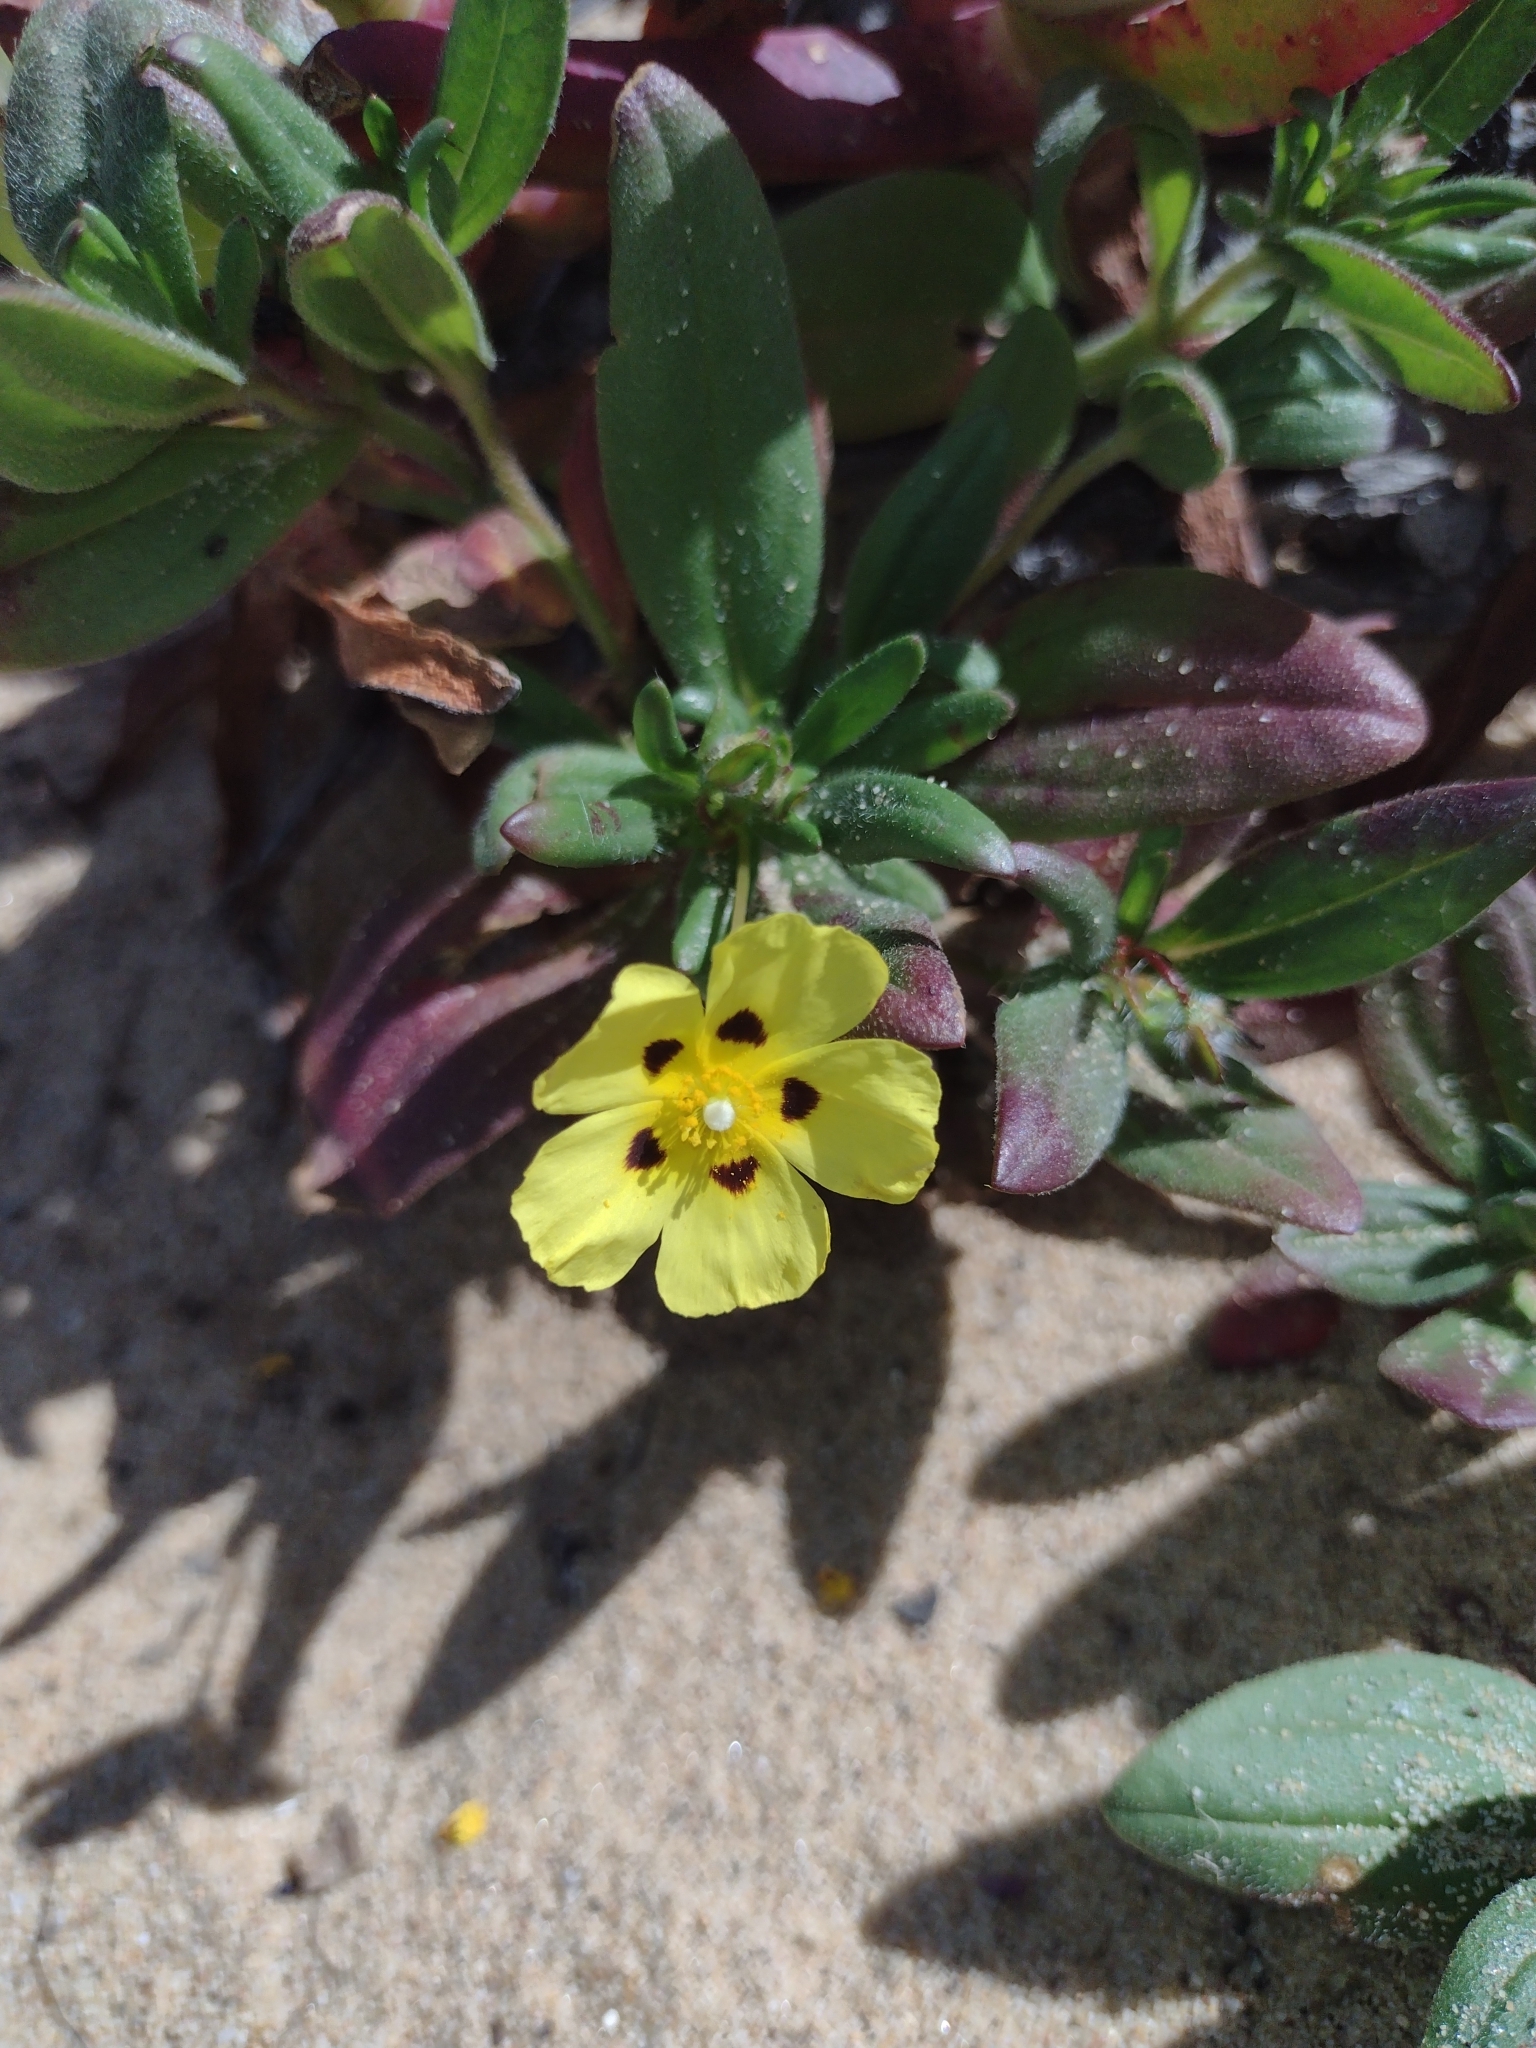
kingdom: Plantae
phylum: Tracheophyta
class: Magnoliopsida
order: Malvales
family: Cistaceae
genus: Tuberaria
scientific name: Tuberaria guttata
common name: Spotted rock-rose
